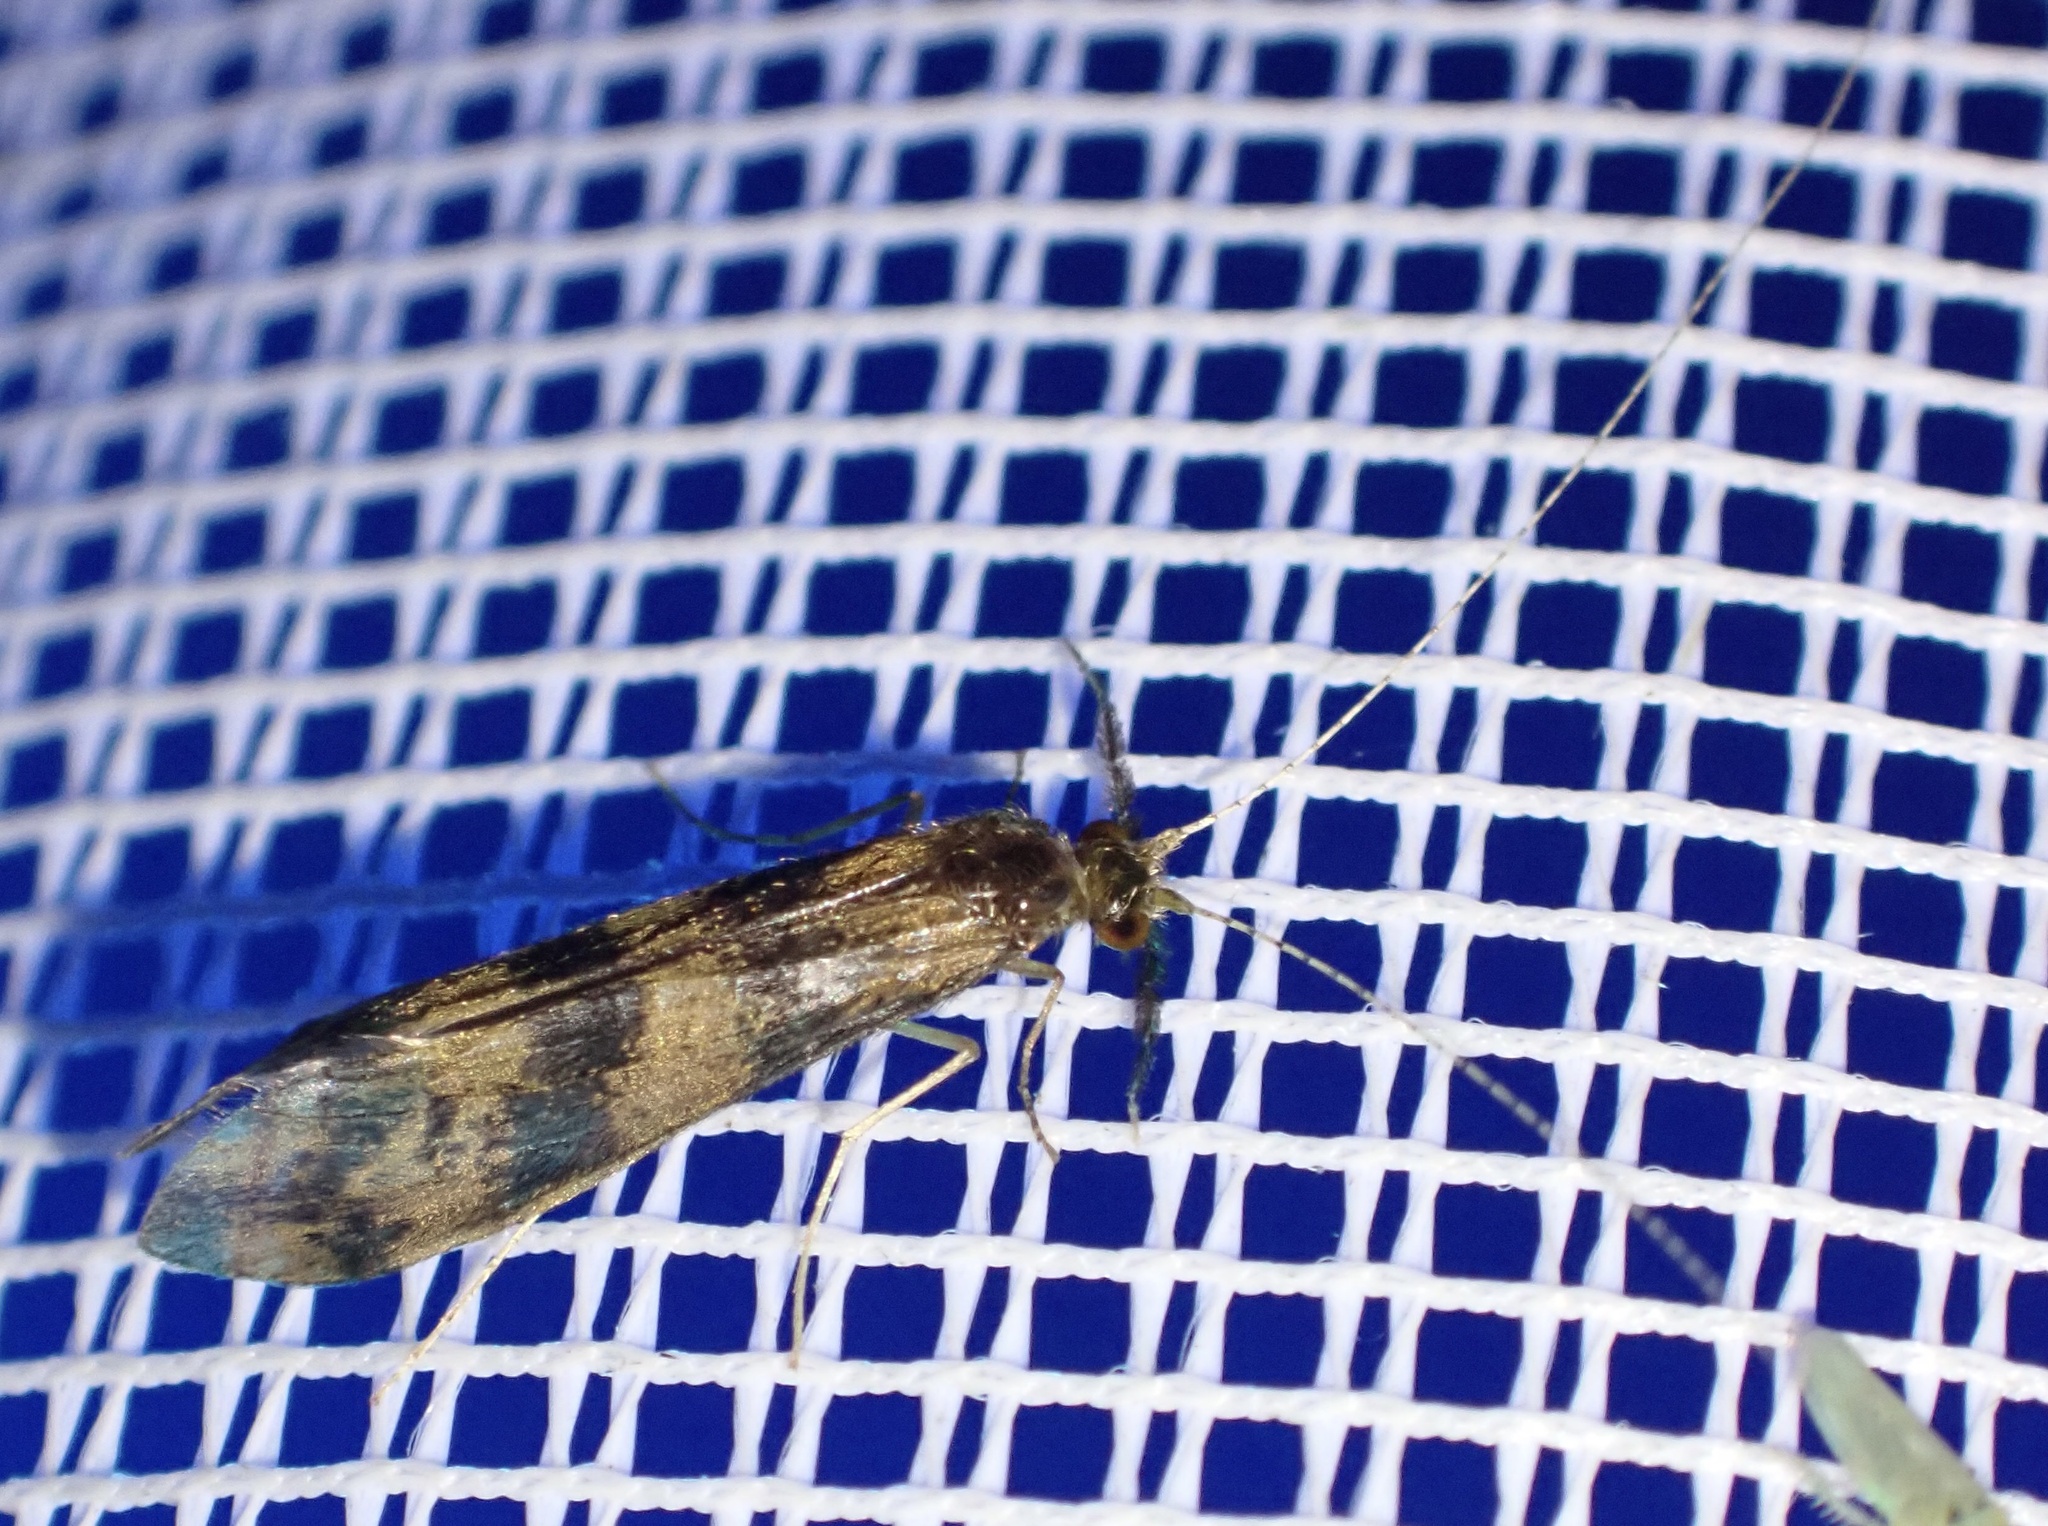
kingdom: Animalia
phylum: Arthropoda
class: Insecta
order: Trichoptera
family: Leptoceridae
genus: Mystacides
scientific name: Mystacides longicornis
